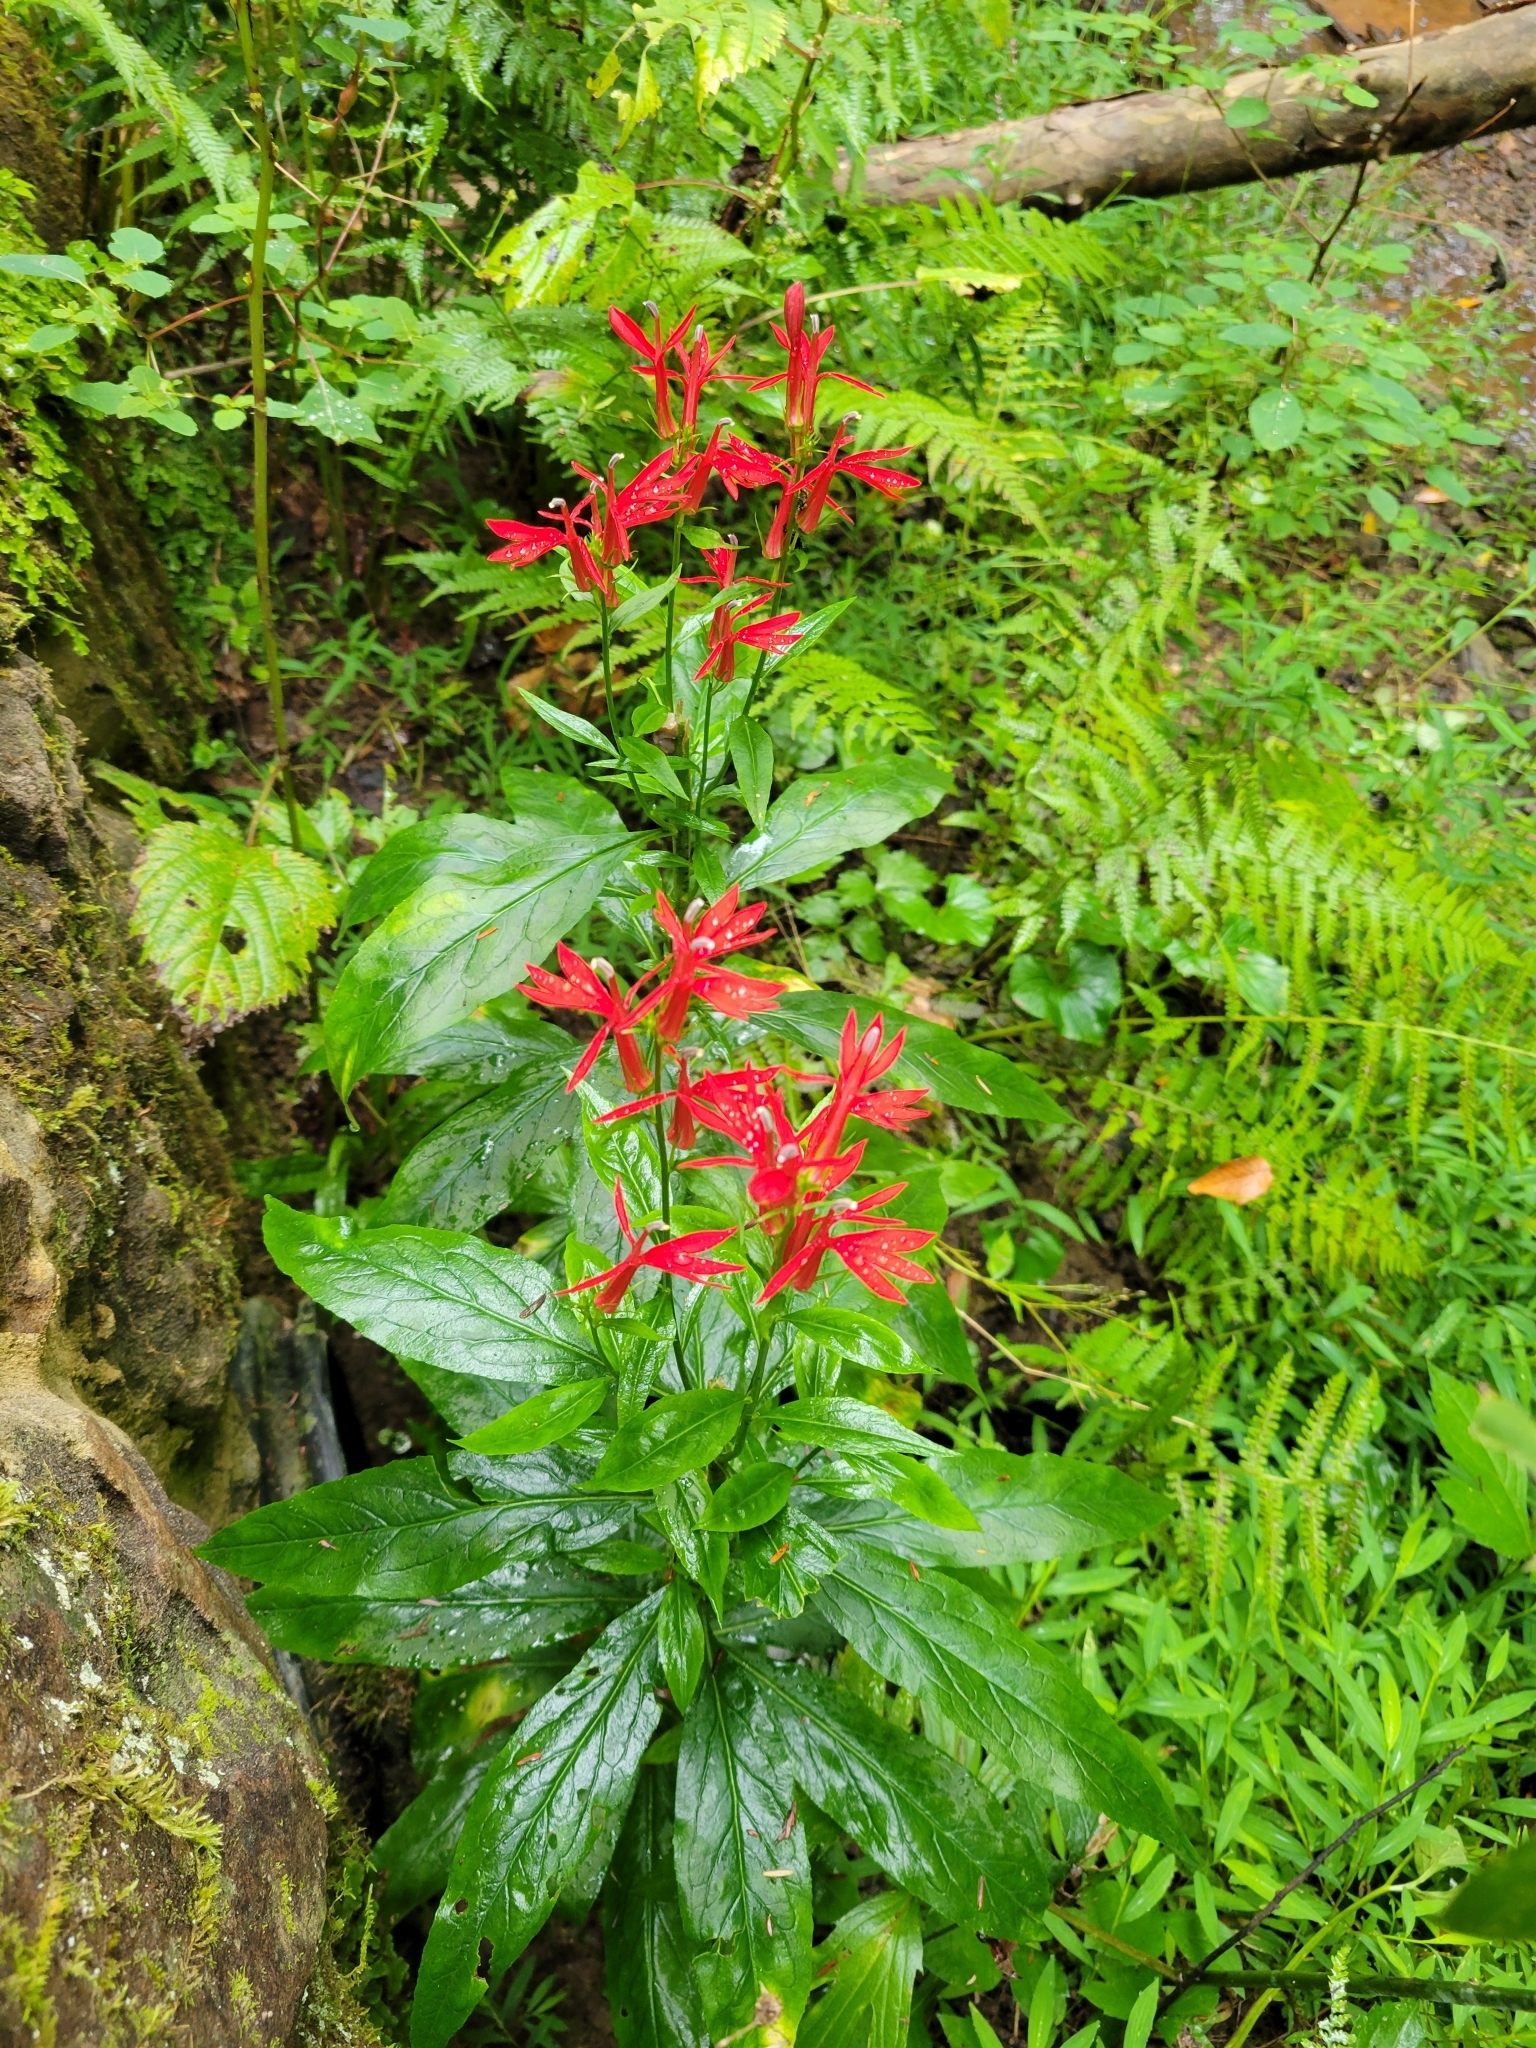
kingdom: Plantae
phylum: Tracheophyta
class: Magnoliopsida
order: Asterales
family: Campanulaceae
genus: Lobelia
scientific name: Lobelia cardinalis
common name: Cardinal flower
